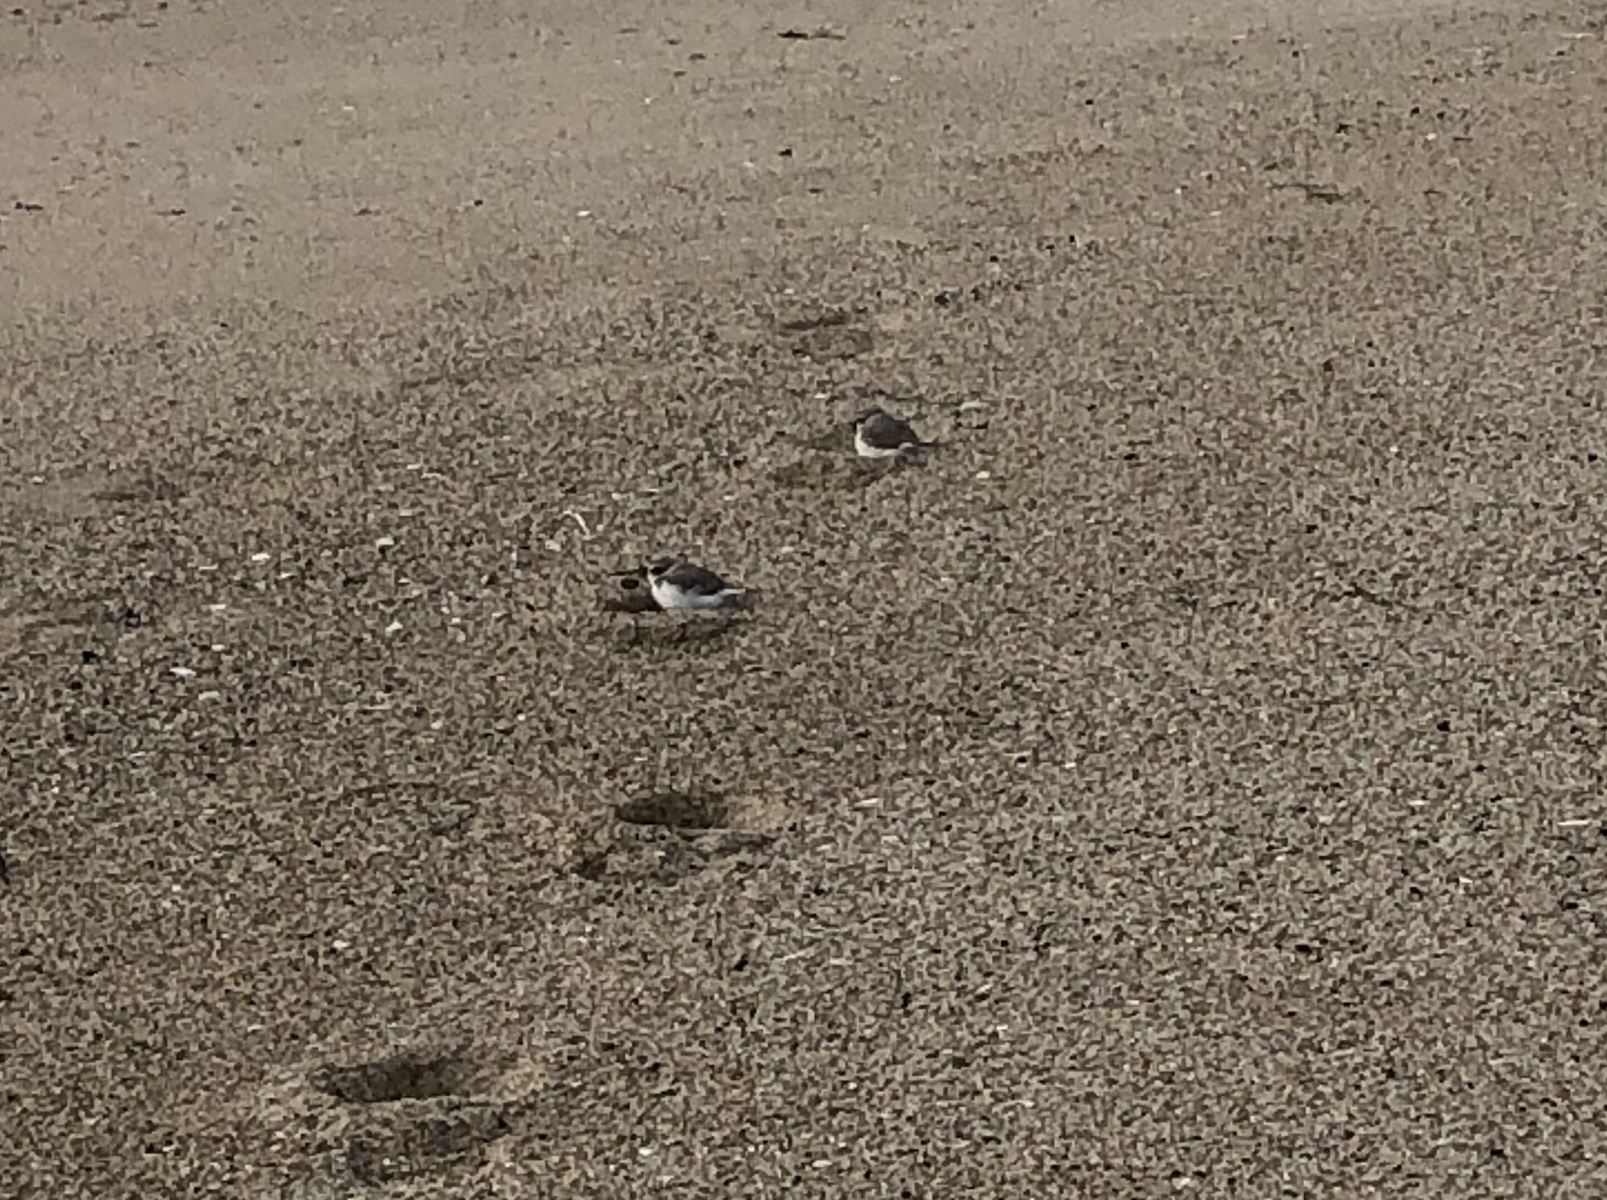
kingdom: Animalia
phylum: Chordata
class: Aves
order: Charadriiformes
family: Charadriidae
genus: Anarhynchus
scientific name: Anarhynchus
